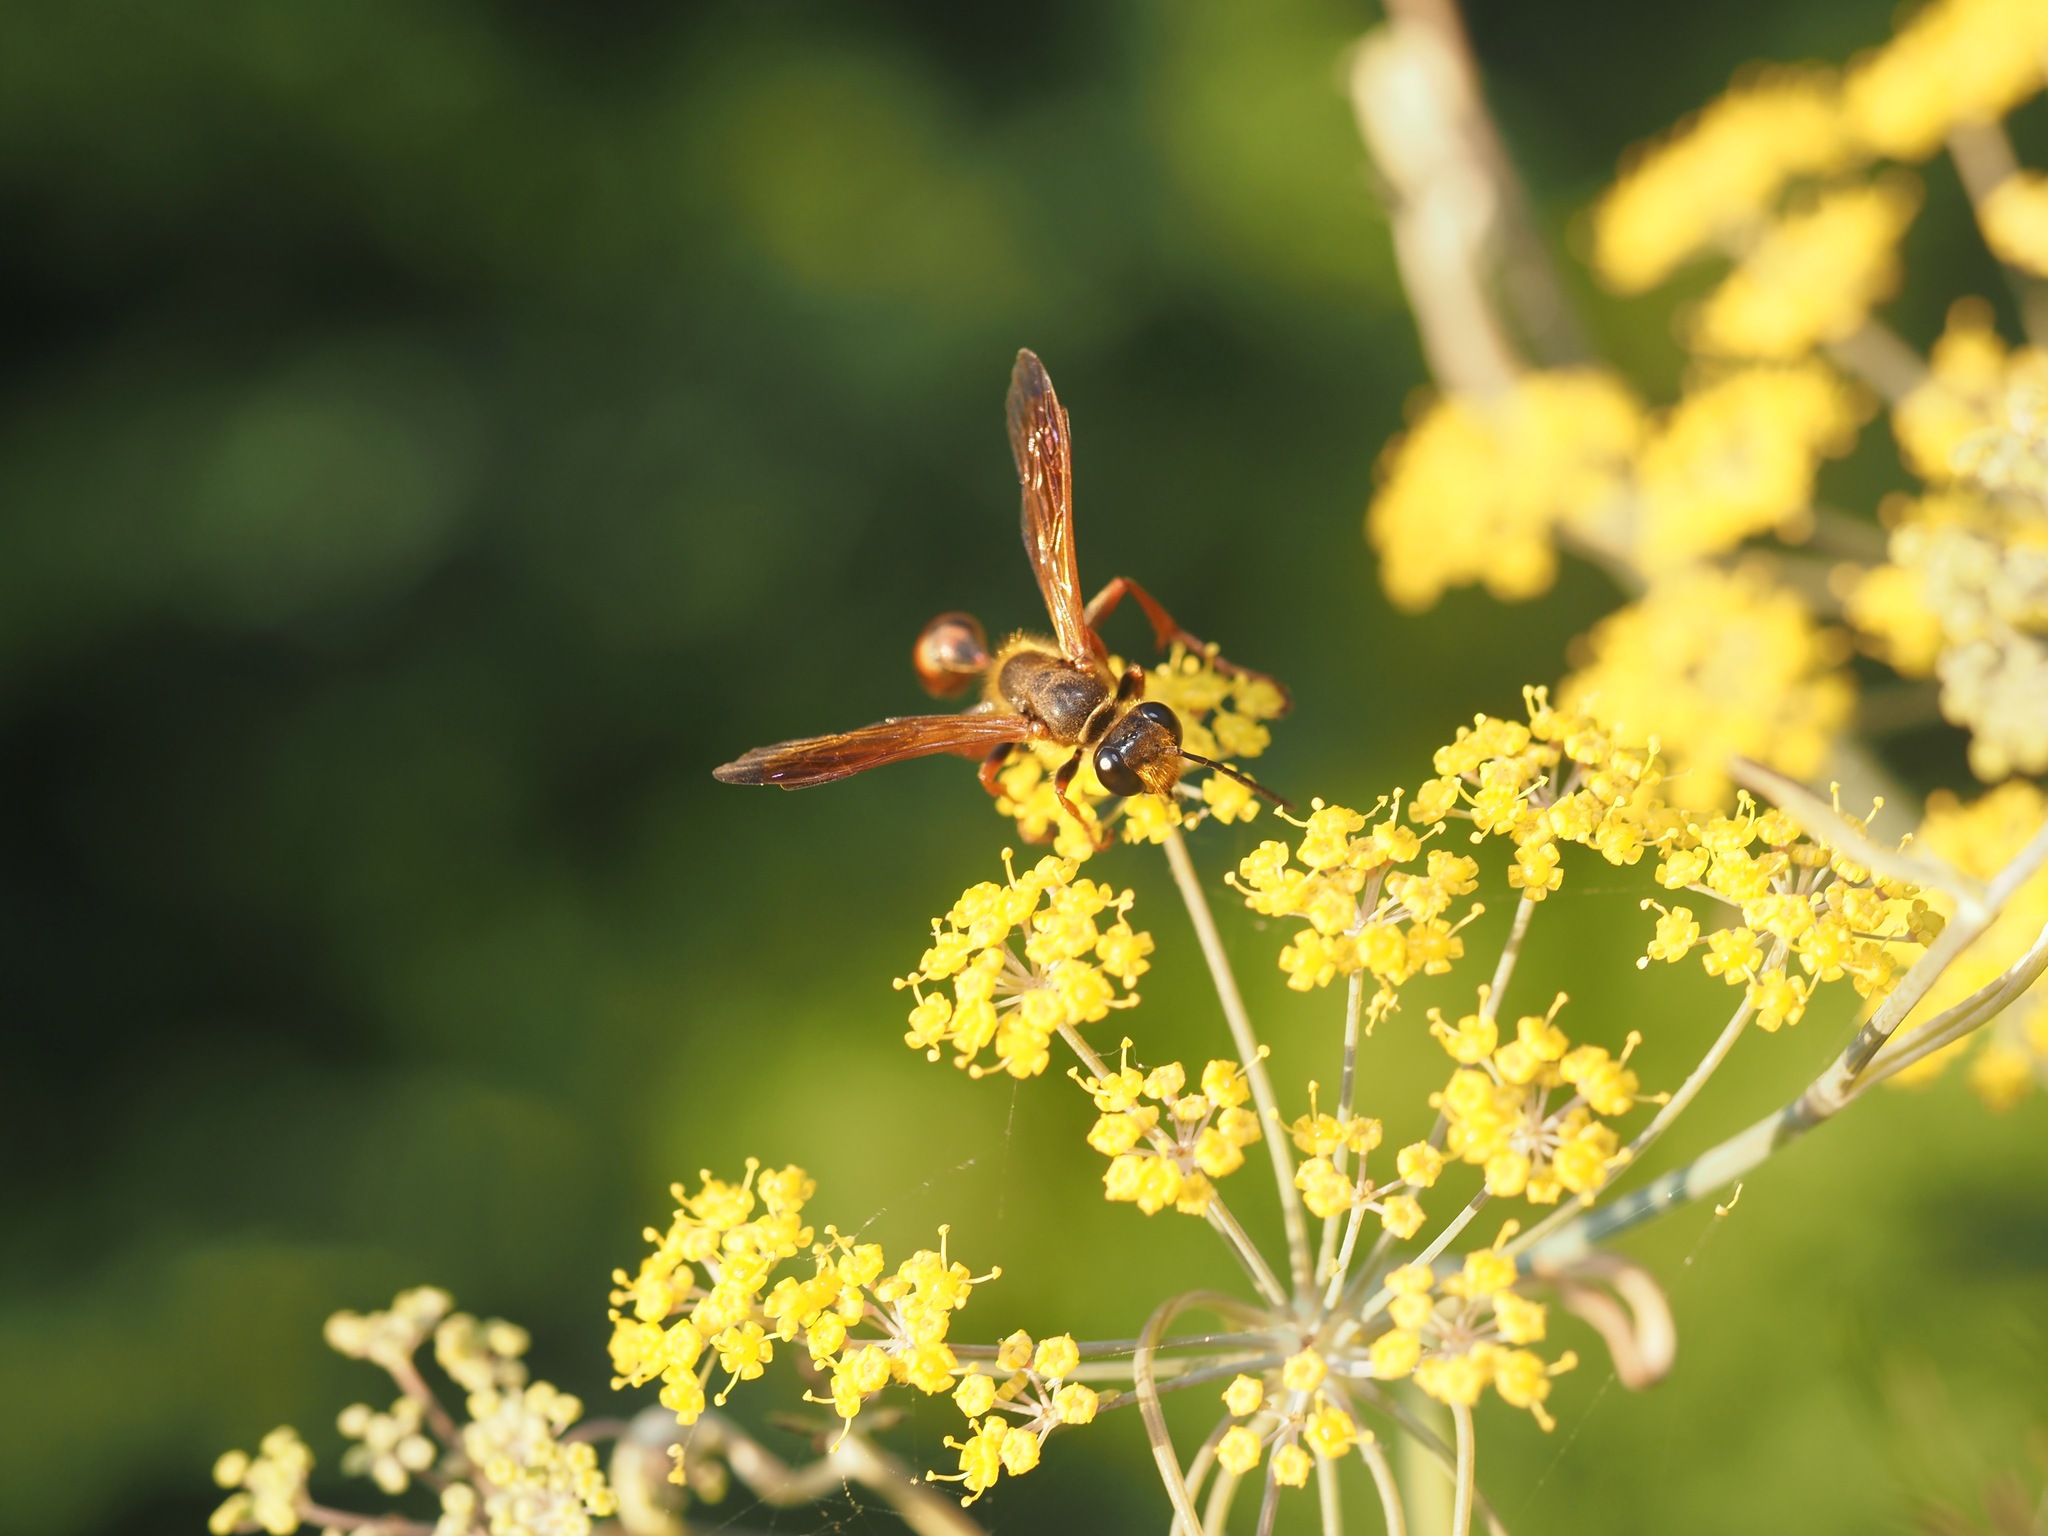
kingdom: Animalia
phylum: Arthropoda
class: Insecta
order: Hymenoptera
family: Sphecidae
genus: Isodontia
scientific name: Isodontia elegans
